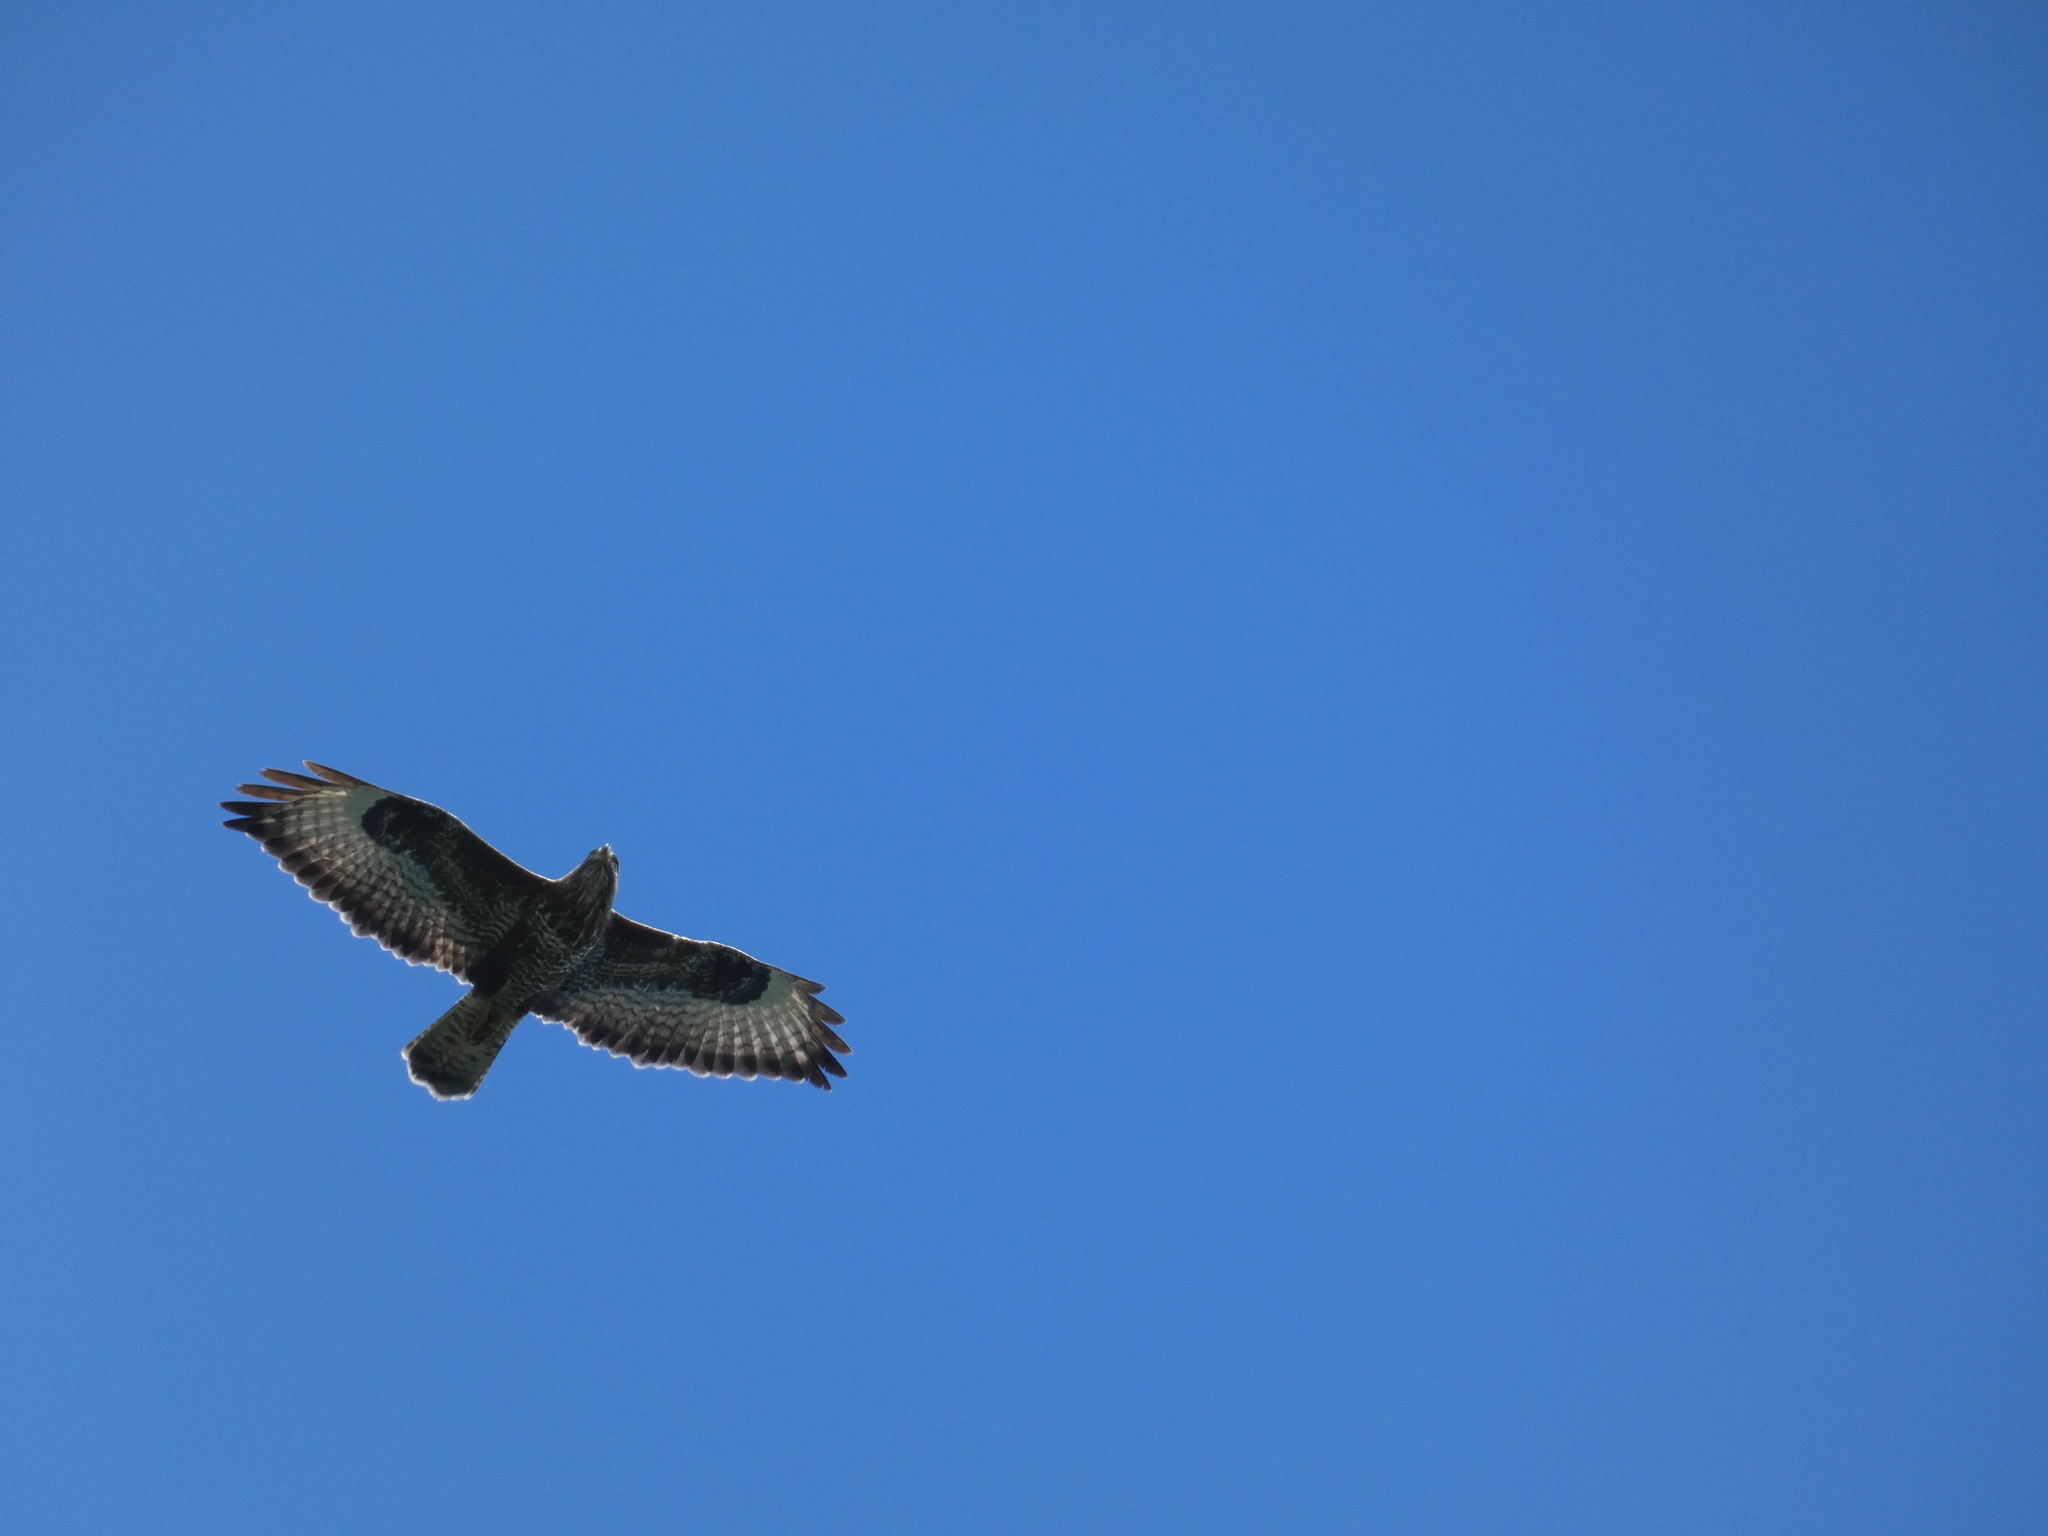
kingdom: Animalia
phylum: Chordata
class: Aves
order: Accipitriformes
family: Accipitridae
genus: Buteo
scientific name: Buteo buteo
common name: Common buzzard
